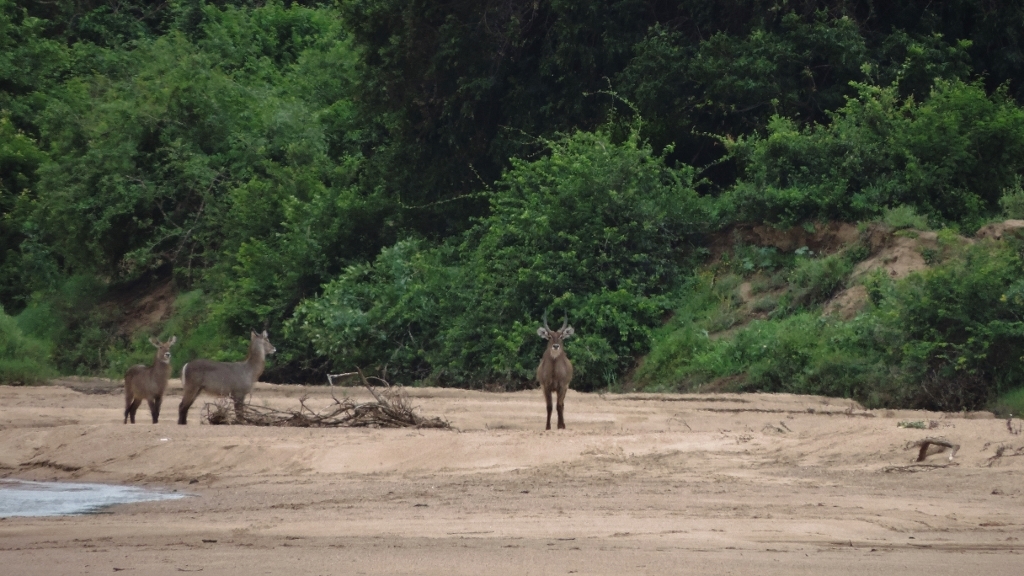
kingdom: Animalia
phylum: Chordata
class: Mammalia
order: Artiodactyla
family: Bovidae
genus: Kobus
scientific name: Kobus ellipsiprymnus
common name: Waterbuck
